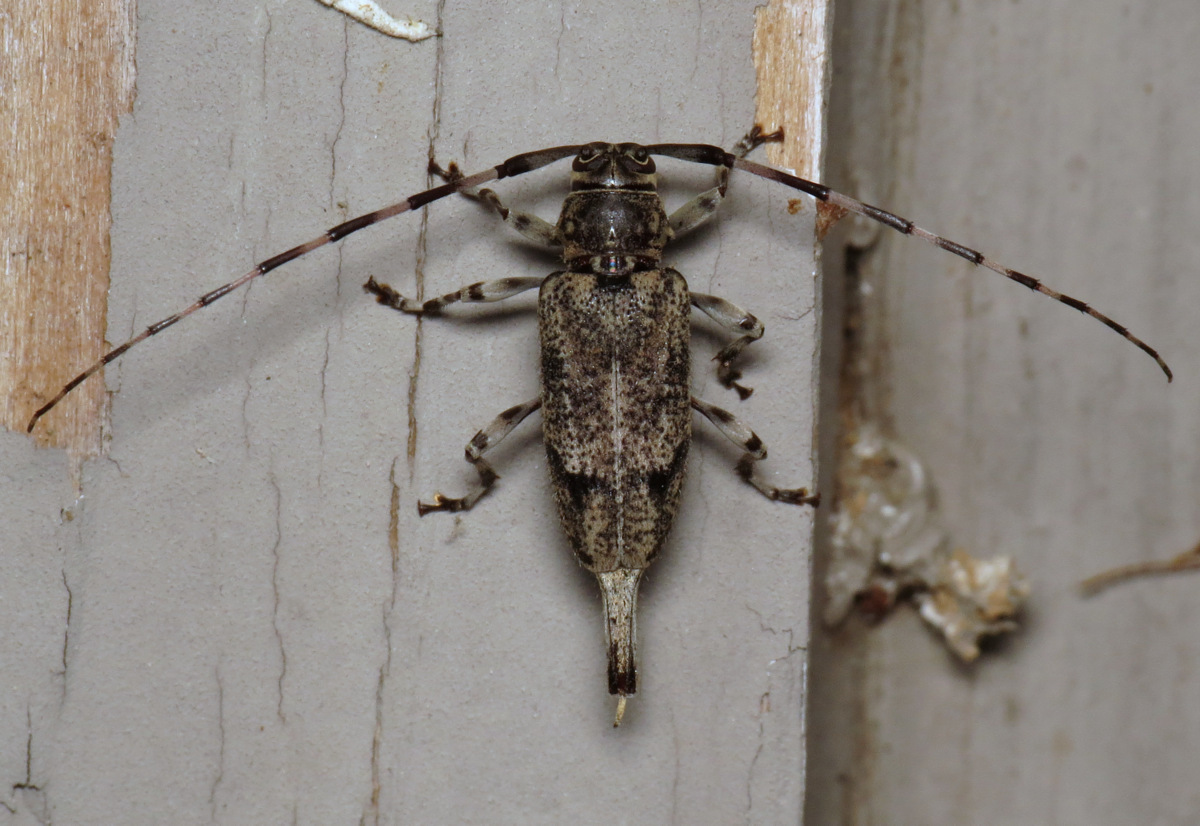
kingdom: Animalia
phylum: Arthropoda
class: Insecta
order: Coleoptera
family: Cerambycidae
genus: Graphisurus
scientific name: Graphisurus despectus
